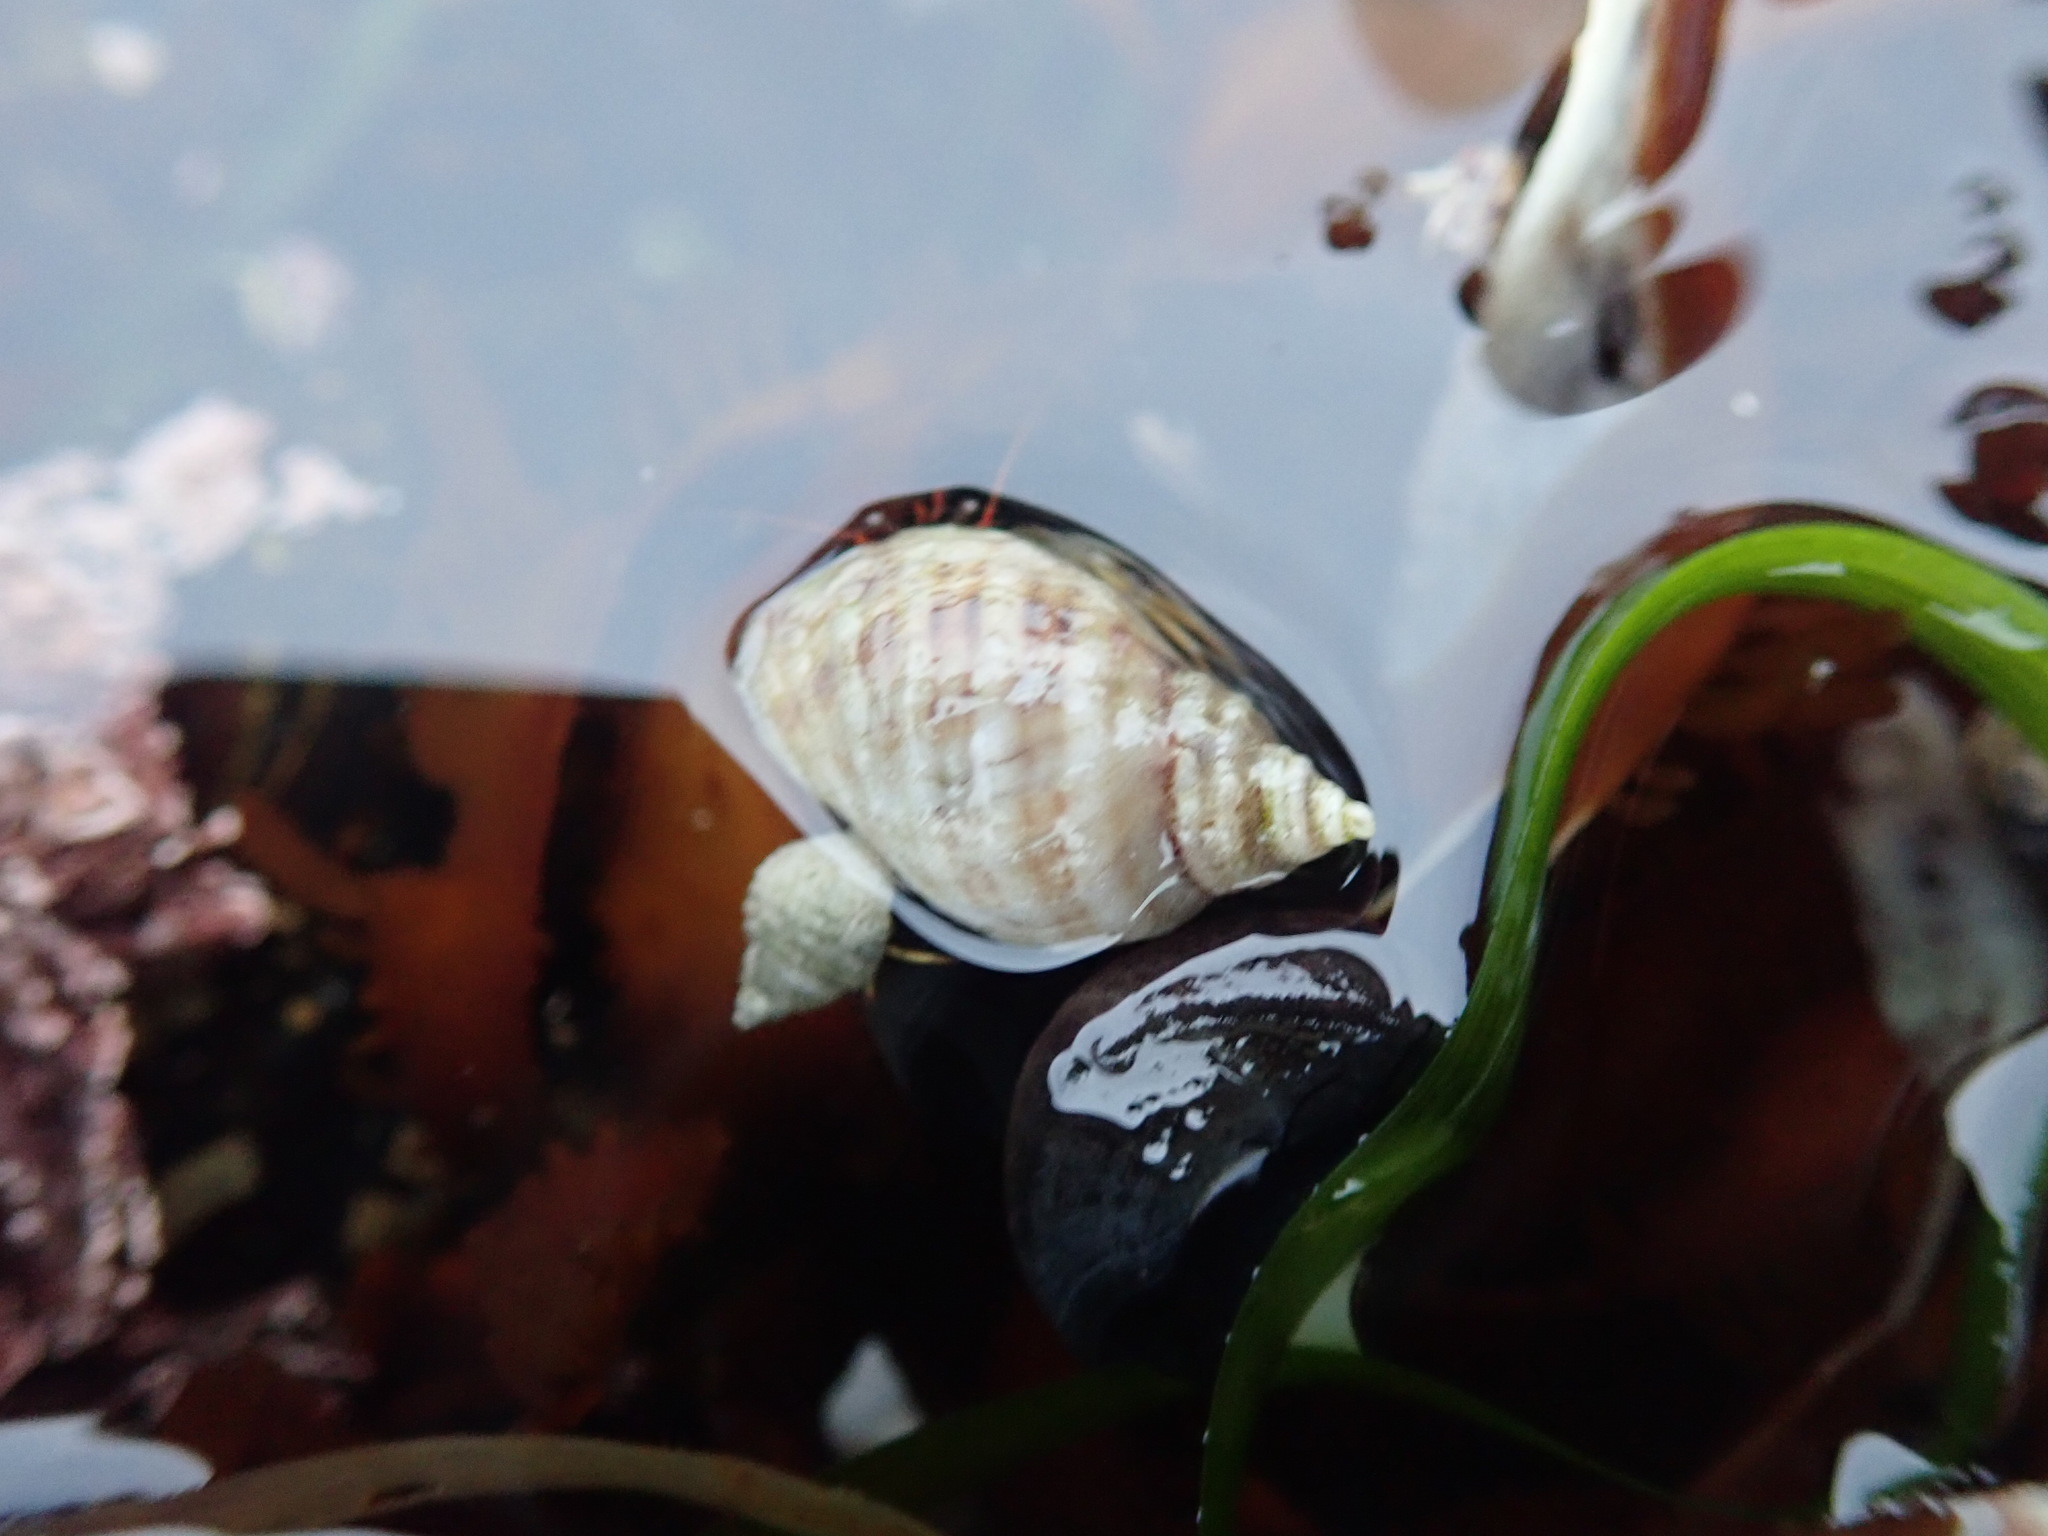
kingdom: Animalia
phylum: Mollusca
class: Gastropoda
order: Neogastropoda
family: Muricidae
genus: Nucella
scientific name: Nucella ostrina
